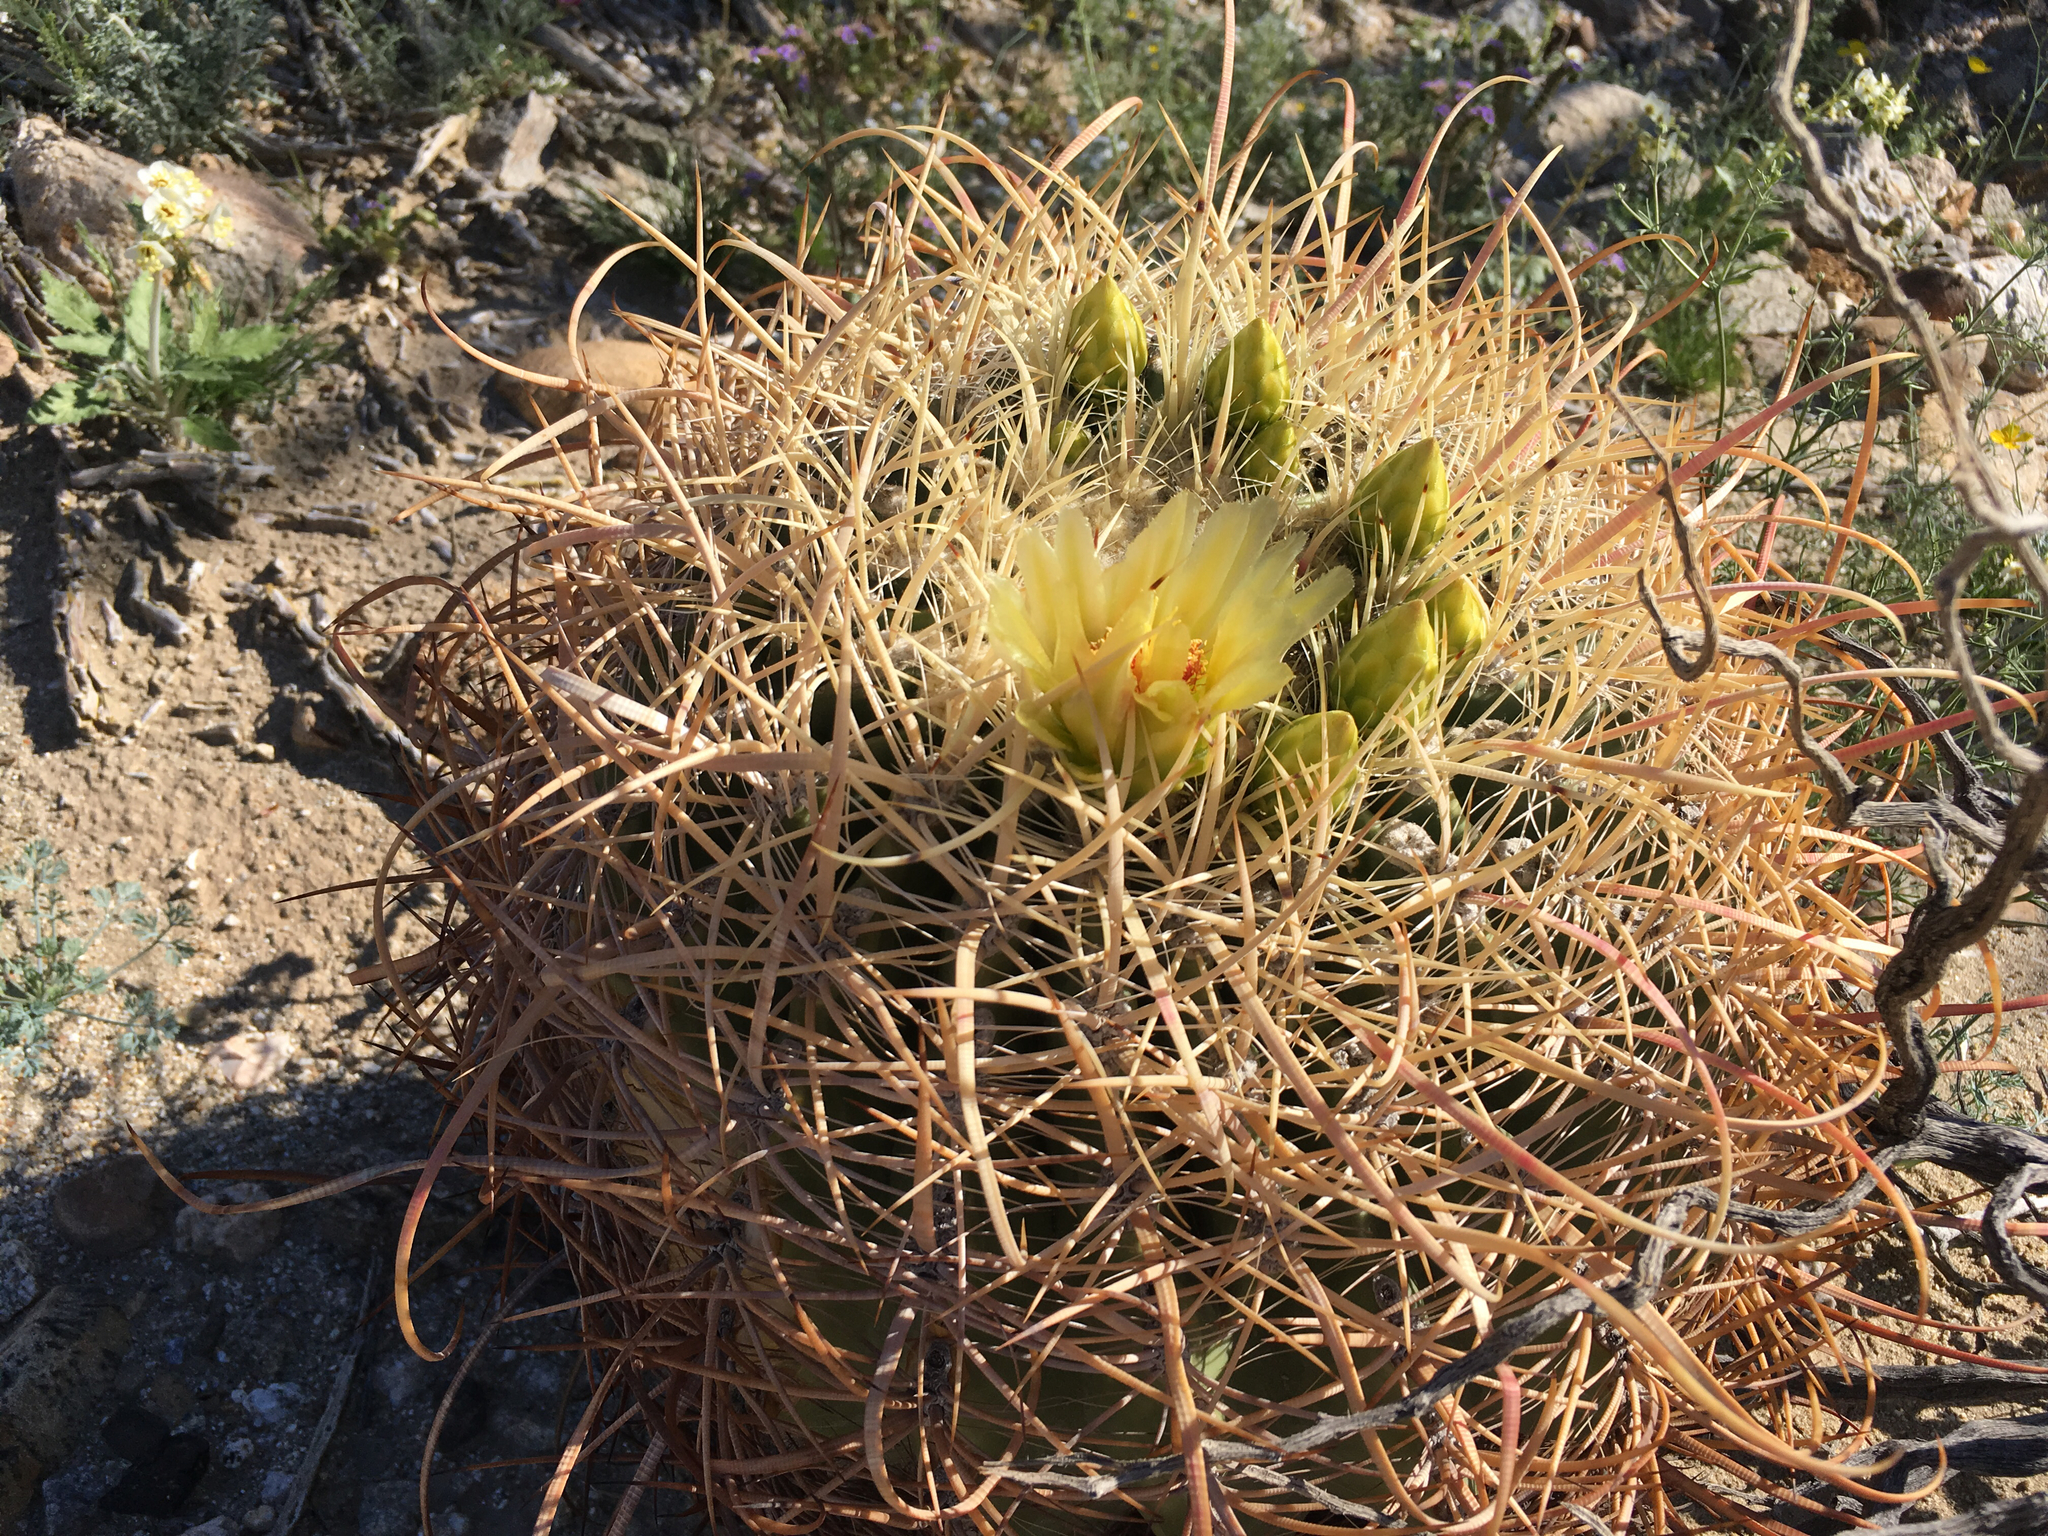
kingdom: Plantae
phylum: Tracheophyta
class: Magnoliopsida
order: Caryophyllales
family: Cactaceae
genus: Ferocactus
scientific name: Ferocactus cylindraceus
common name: California barrel cactus
